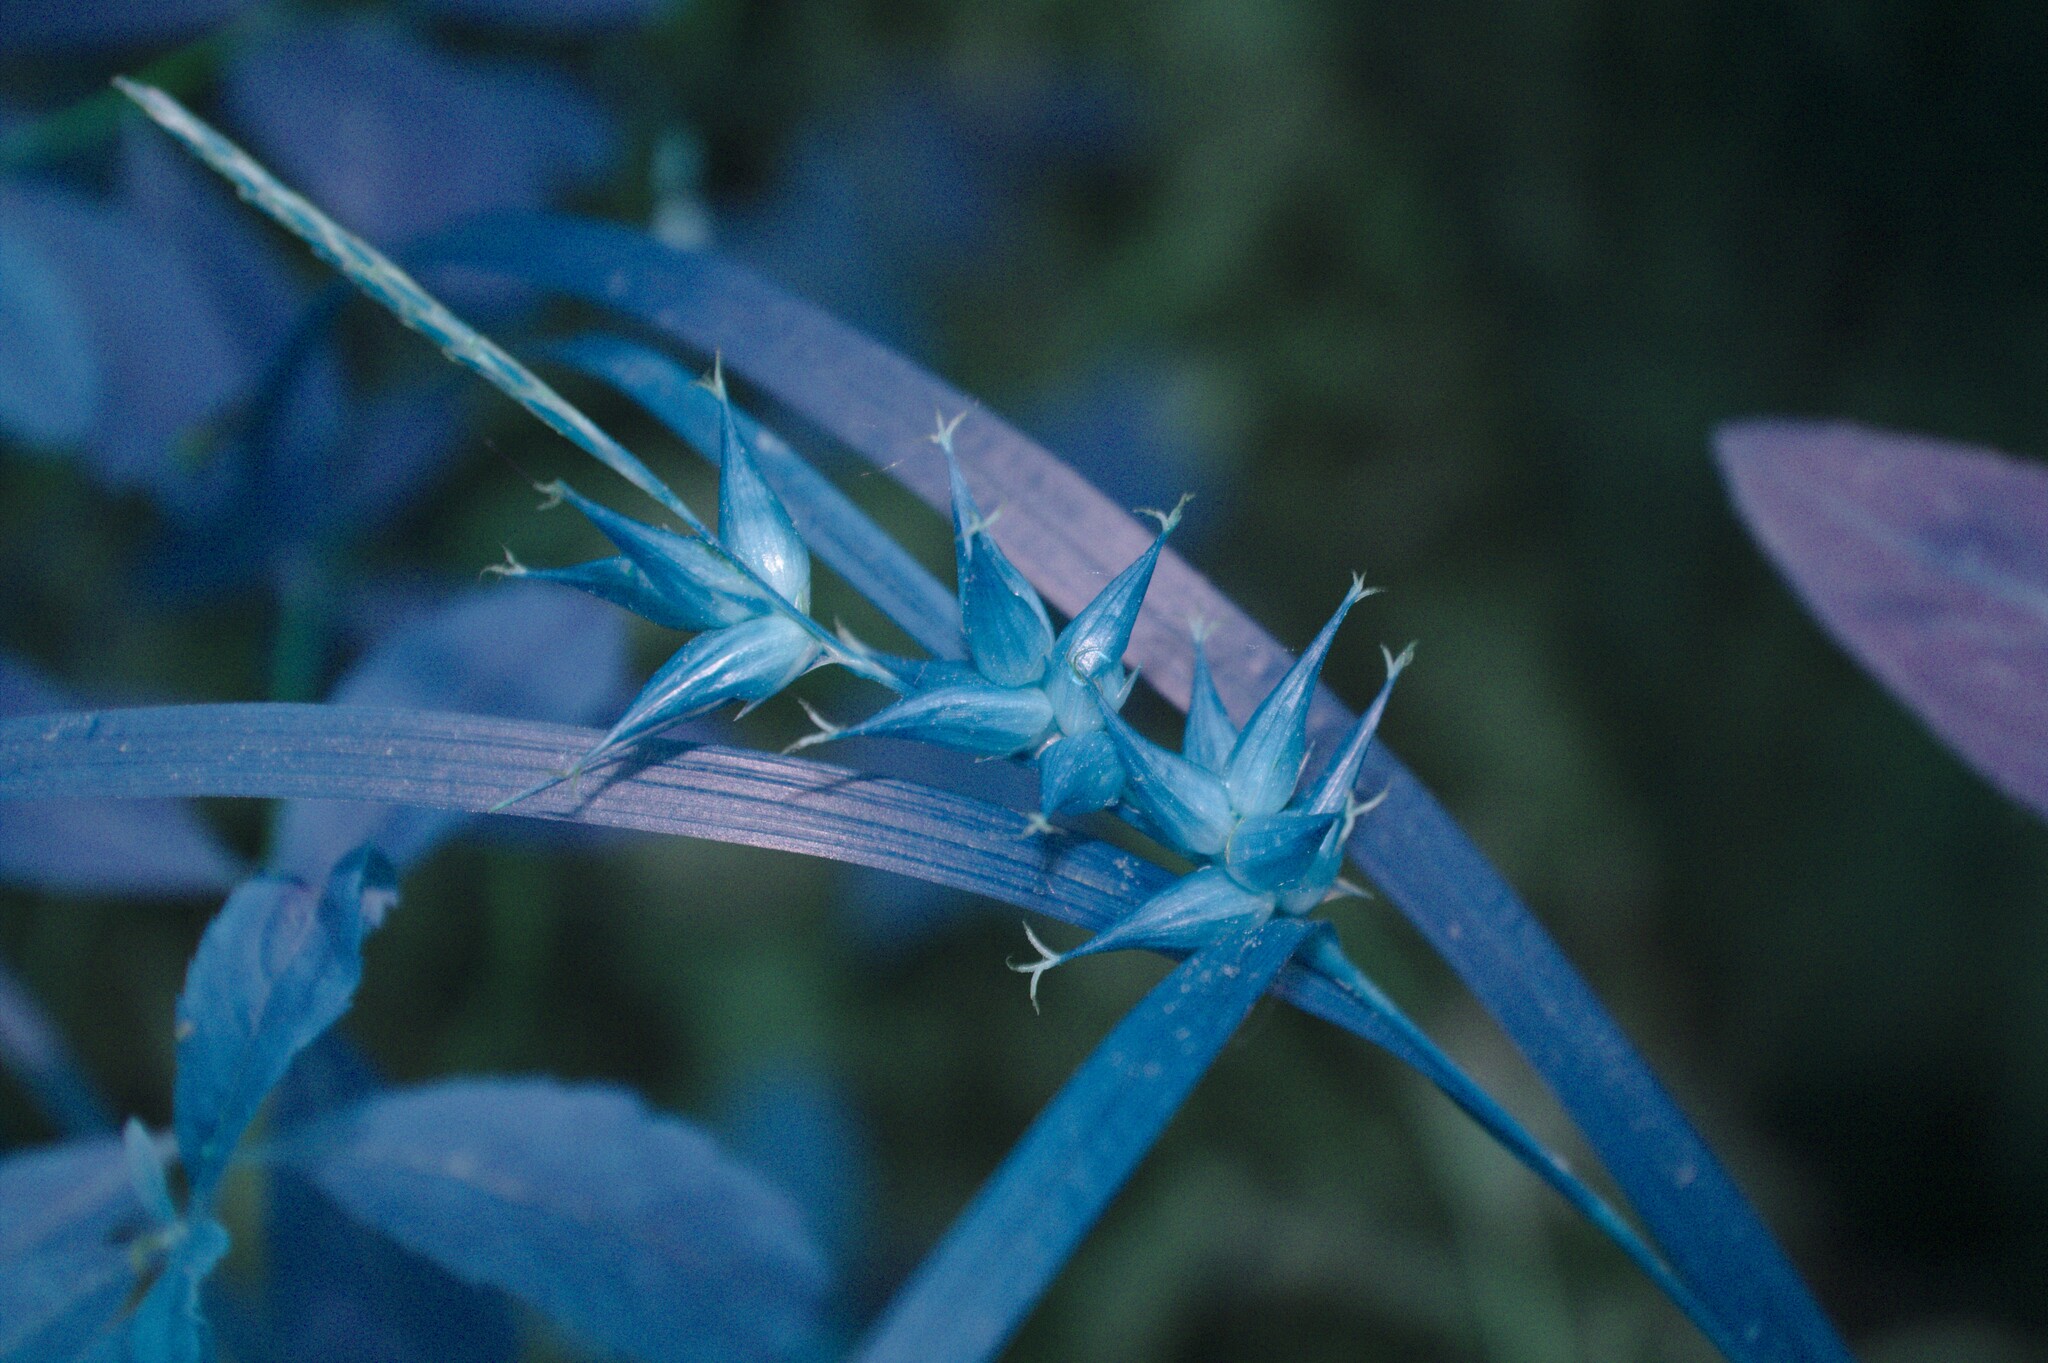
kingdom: Plantae
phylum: Tracheophyta
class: Liliopsida
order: Poales
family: Cyperaceae
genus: Carex
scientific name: Carex intumescens
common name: Greater bladder sedge
